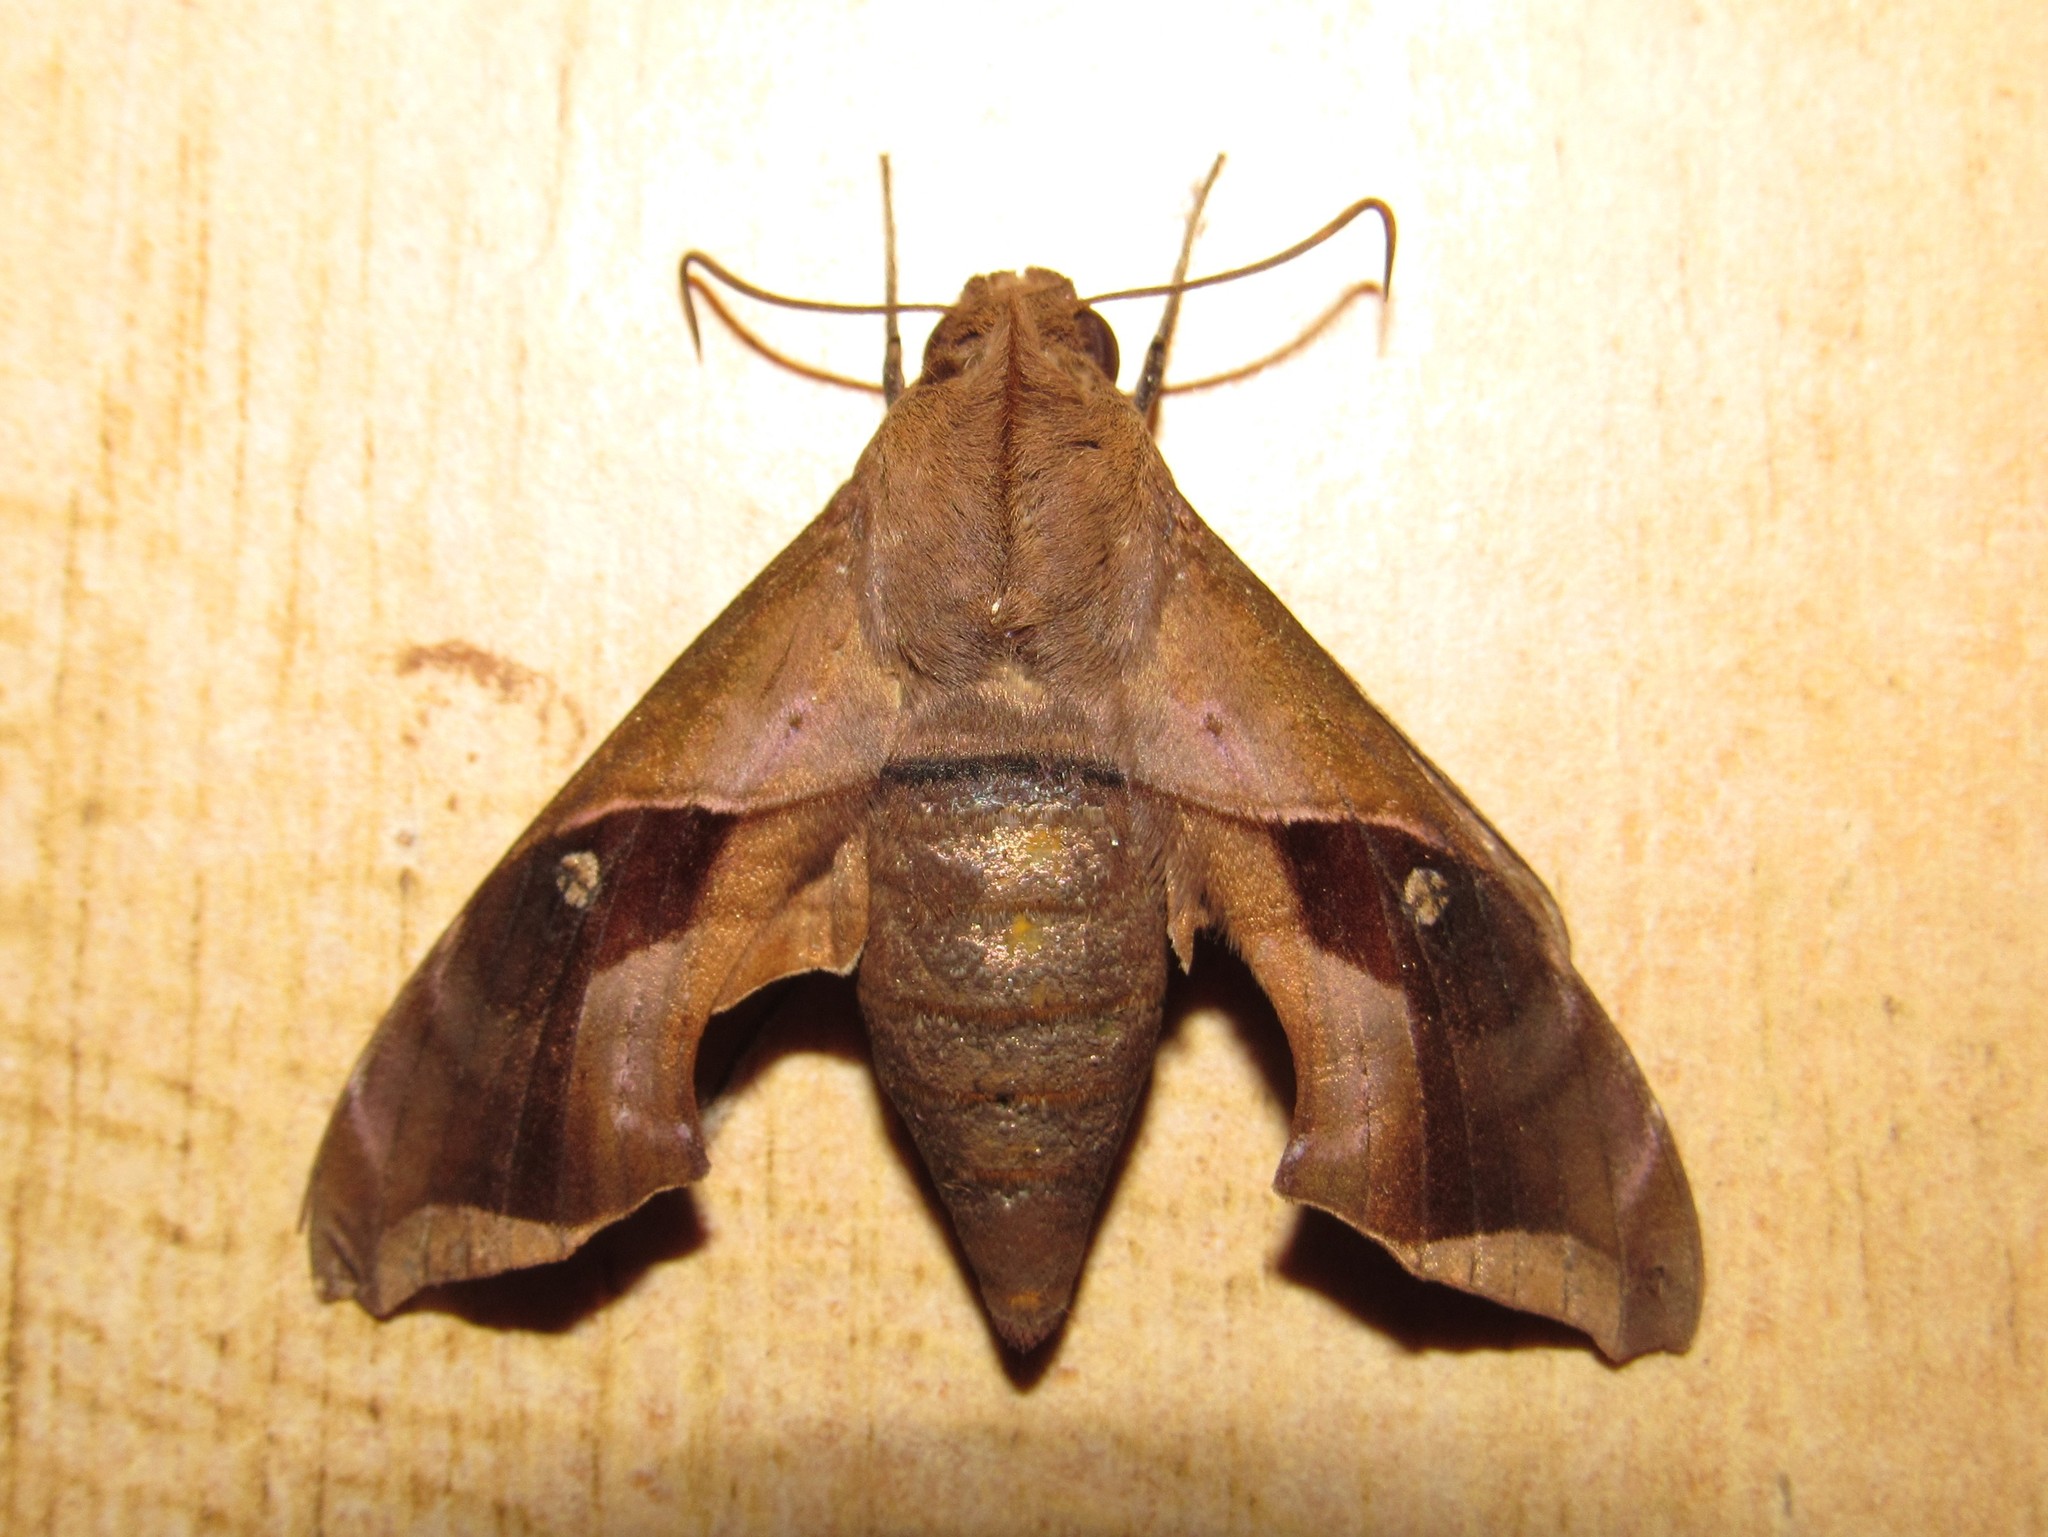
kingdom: Animalia
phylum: Arthropoda
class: Insecta
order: Lepidoptera
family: Sphingidae
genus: Enyo
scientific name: Enyo gorgon
